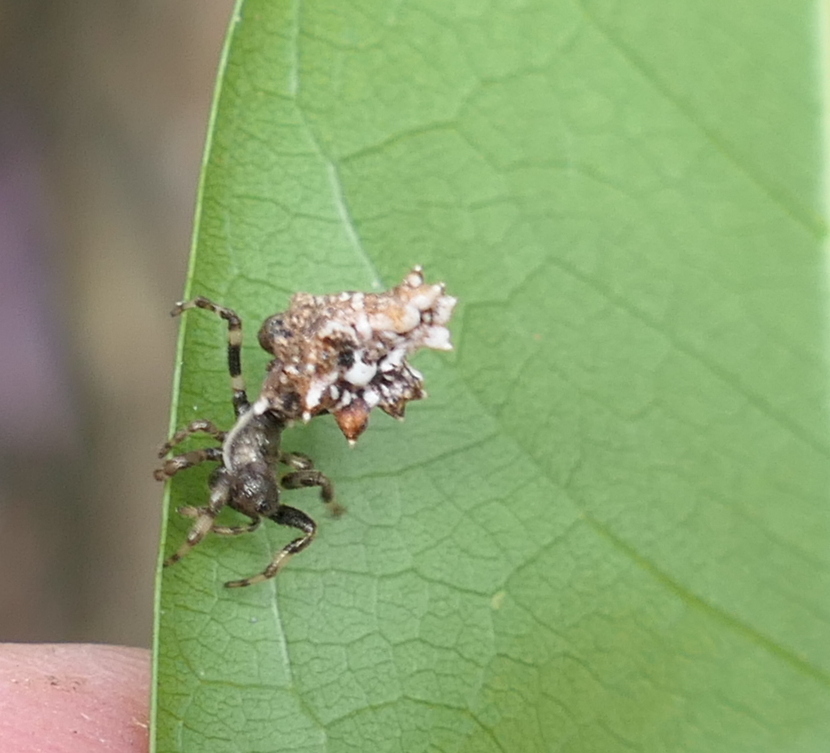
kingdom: Animalia
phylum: Arthropoda
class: Arachnida
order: Araneae
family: Araneidae
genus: Micrathena
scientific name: Micrathena horrida
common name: Orb weavers
